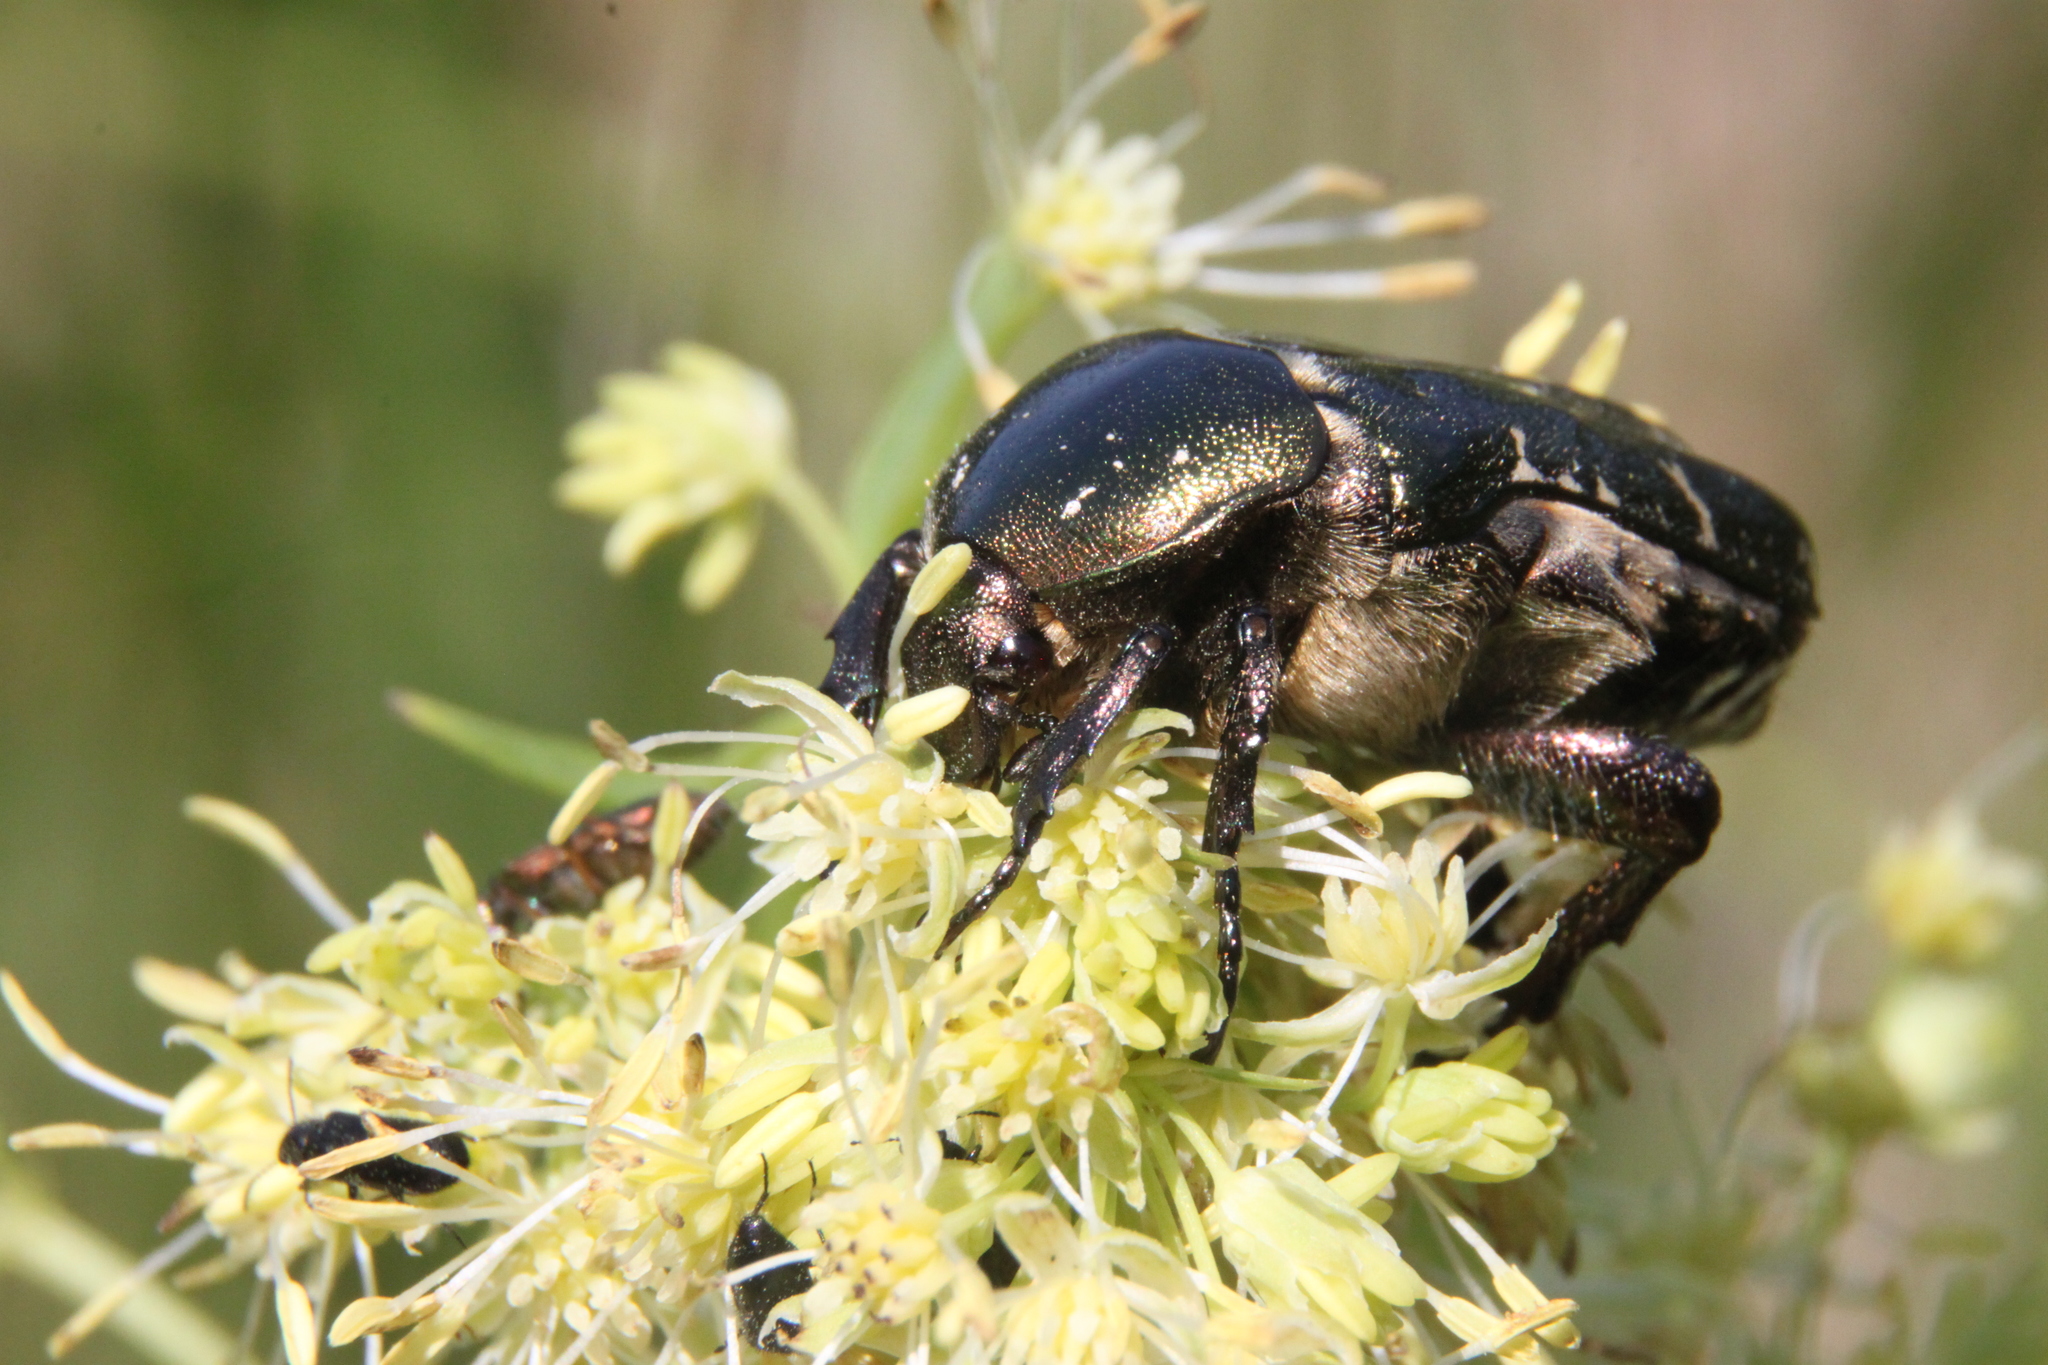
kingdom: Animalia
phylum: Arthropoda
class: Insecta
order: Coleoptera
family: Scarabaeidae
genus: Protaetia
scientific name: Protaetia cuprea
